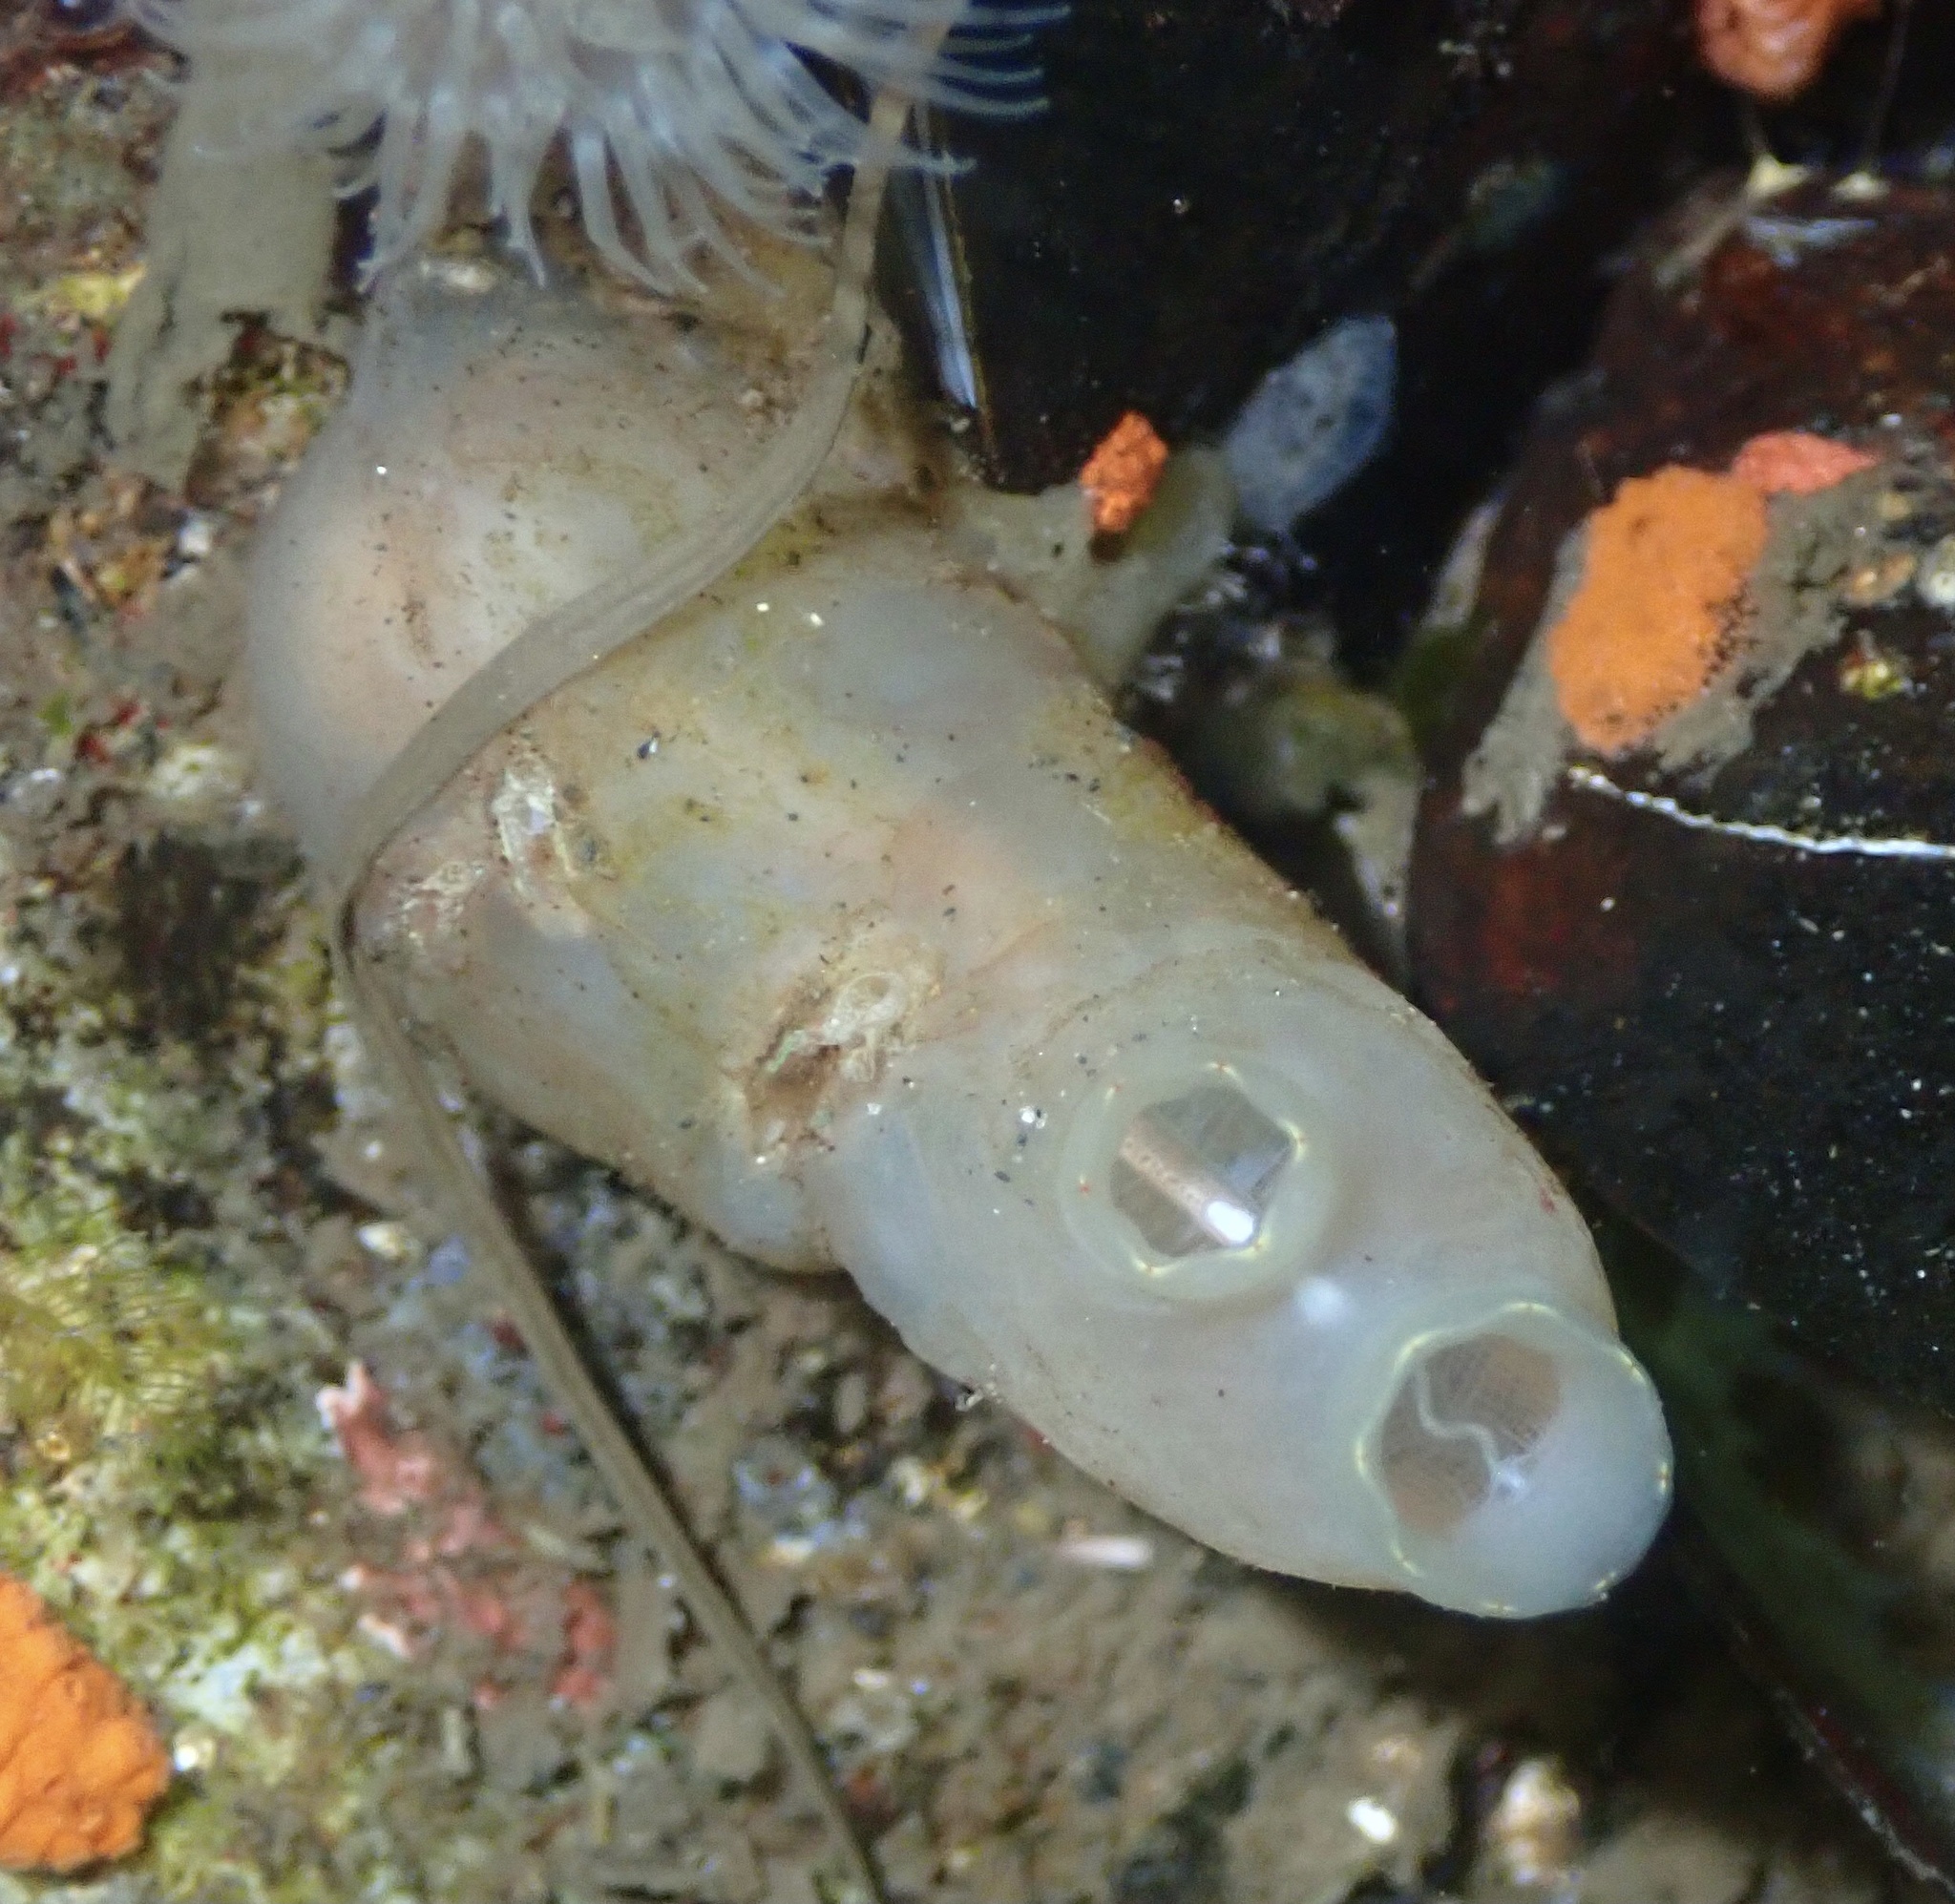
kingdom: Animalia
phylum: Chordata
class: Ascidiacea
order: Phlebobranchia
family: Cionidae
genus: Ciona
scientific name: Ciona intestinalis
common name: Vase tunicate
